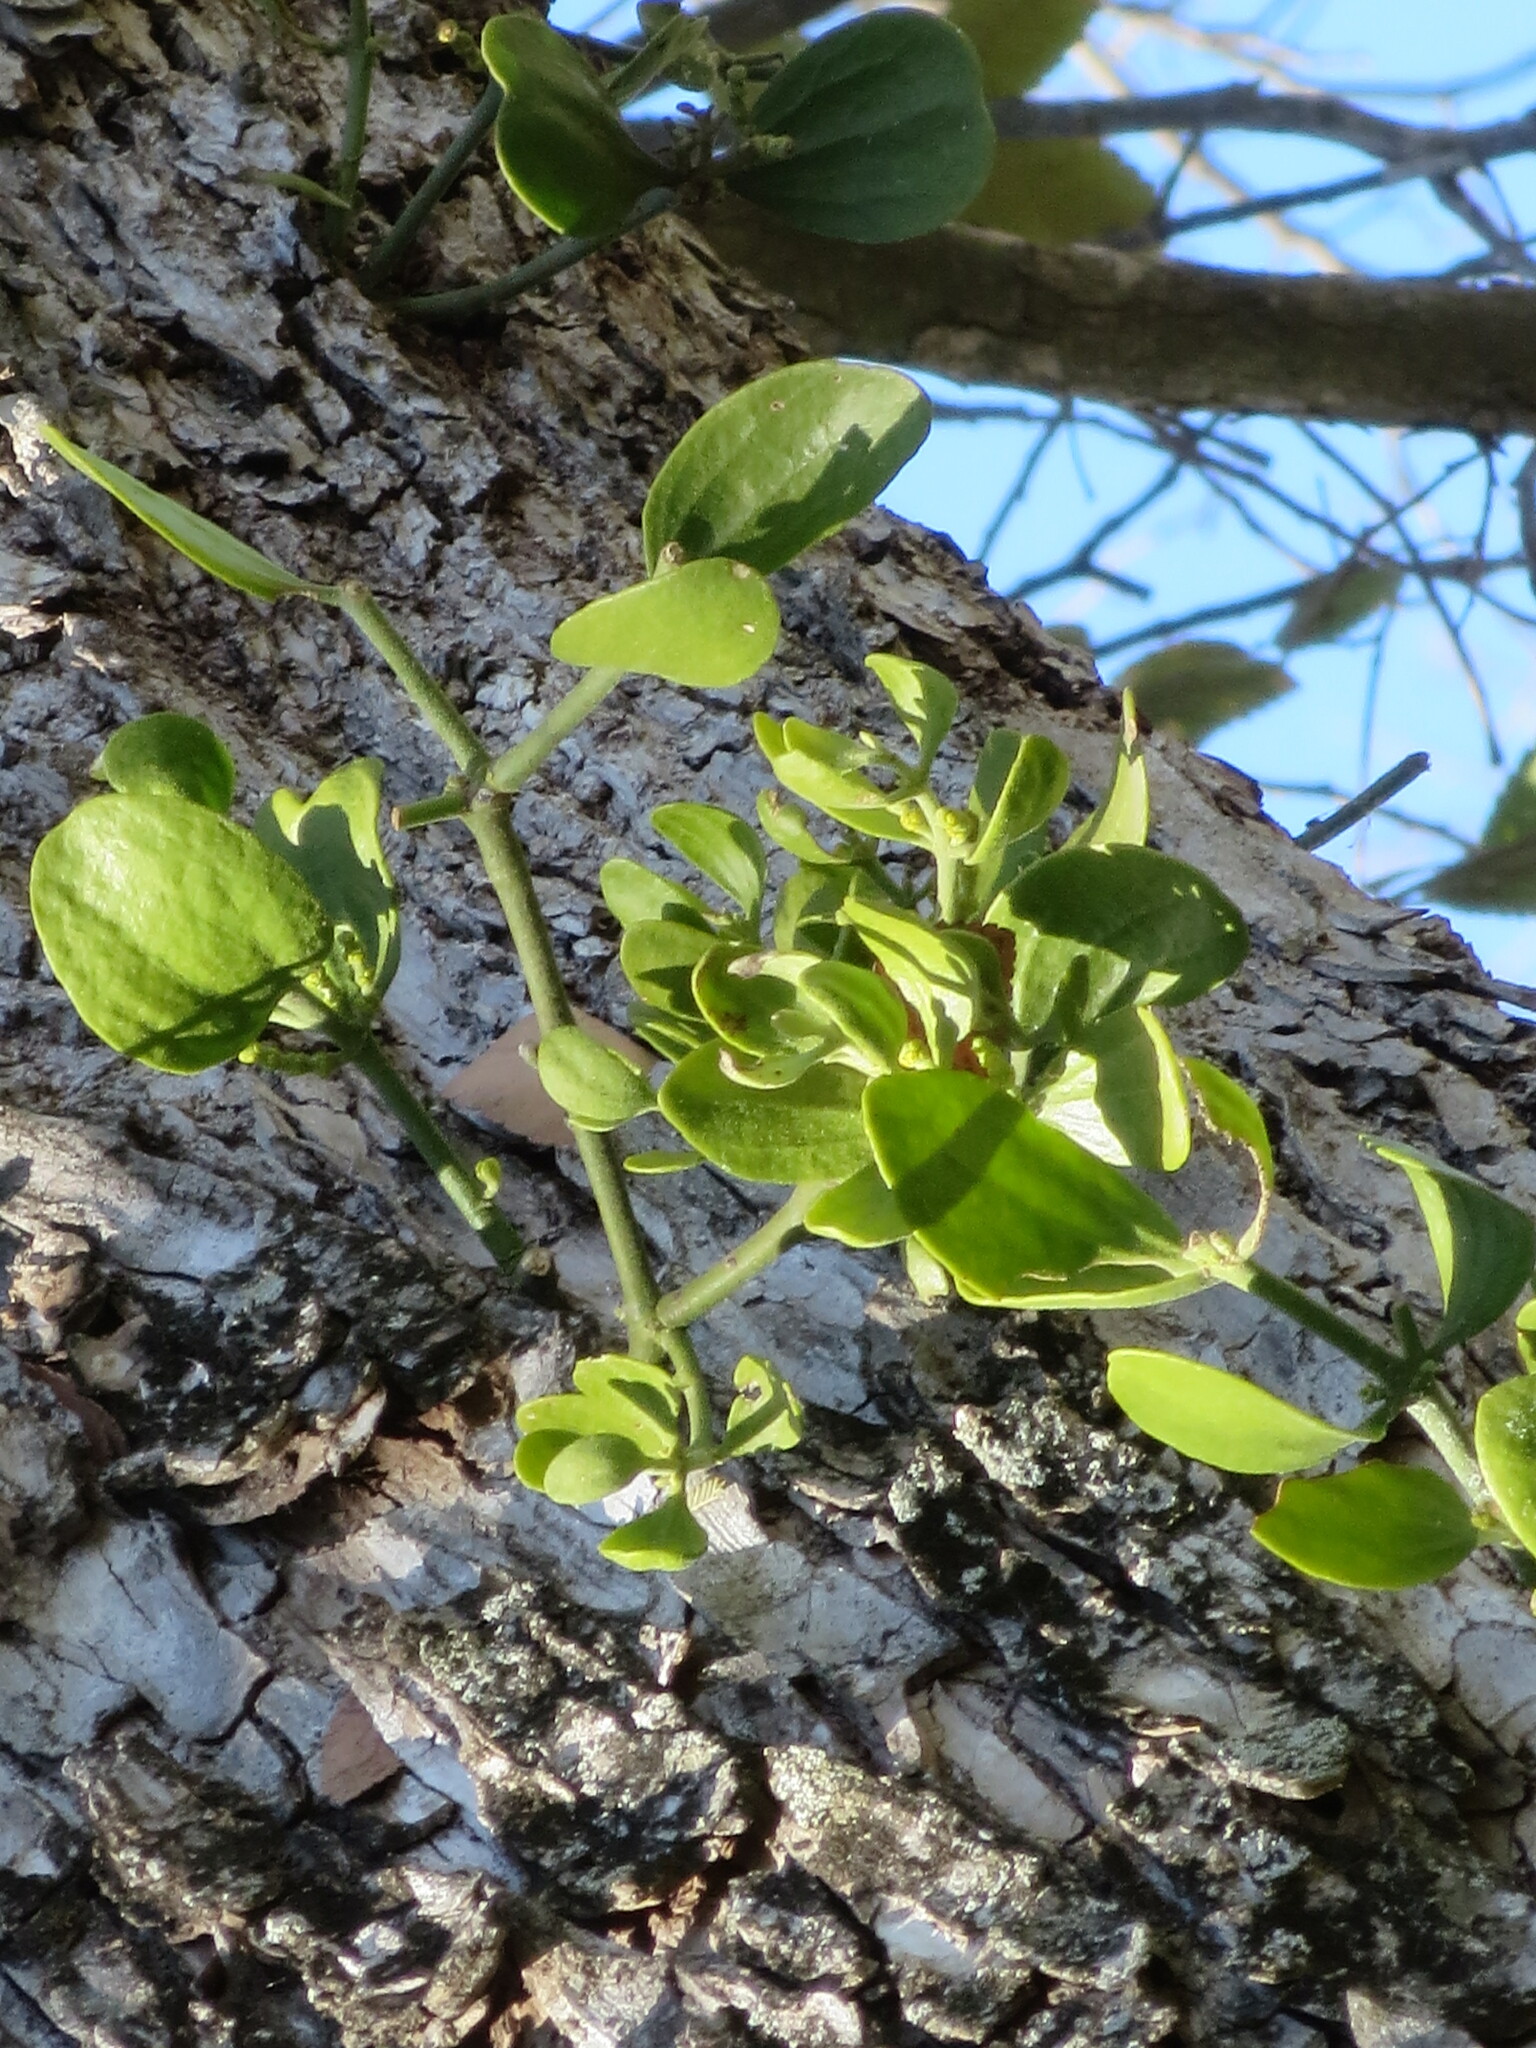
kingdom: Plantae
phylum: Tracheophyta
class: Magnoliopsida
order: Santalales
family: Viscaceae
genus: Phoradendron
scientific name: Phoradendron leucarpum
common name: Pacific mistletoe
